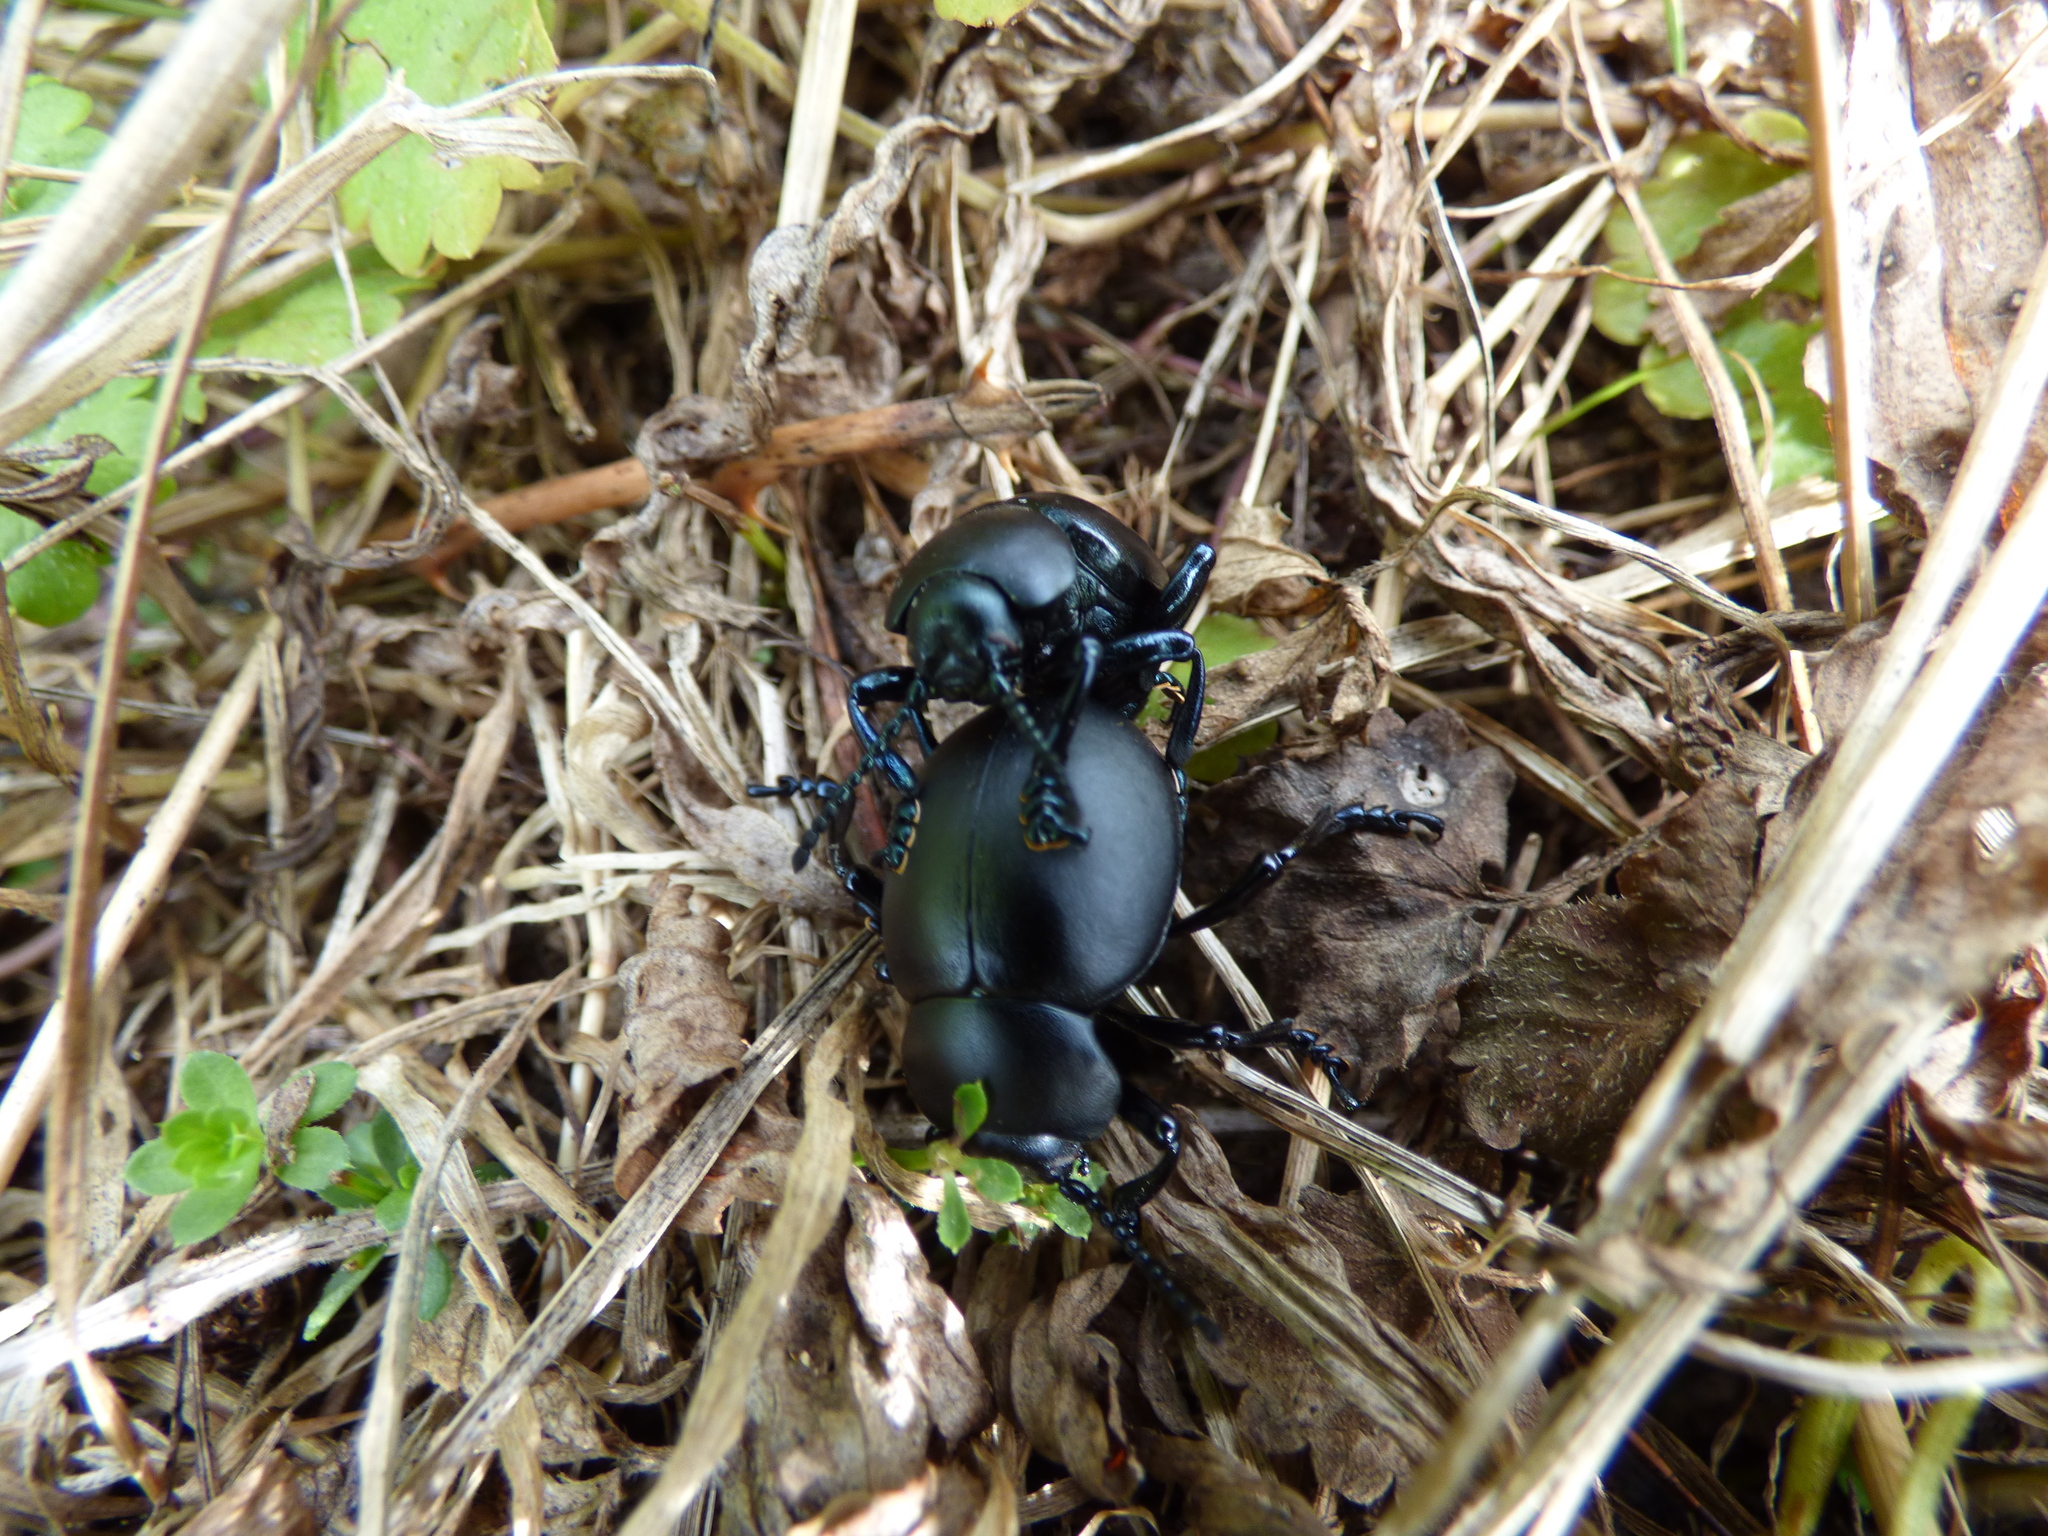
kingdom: Animalia
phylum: Arthropoda
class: Insecta
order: Coleoptera
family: Chrysomelidae
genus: Timarcha
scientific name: Timarcha tenebricosa
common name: Bloody-nosed beetle
